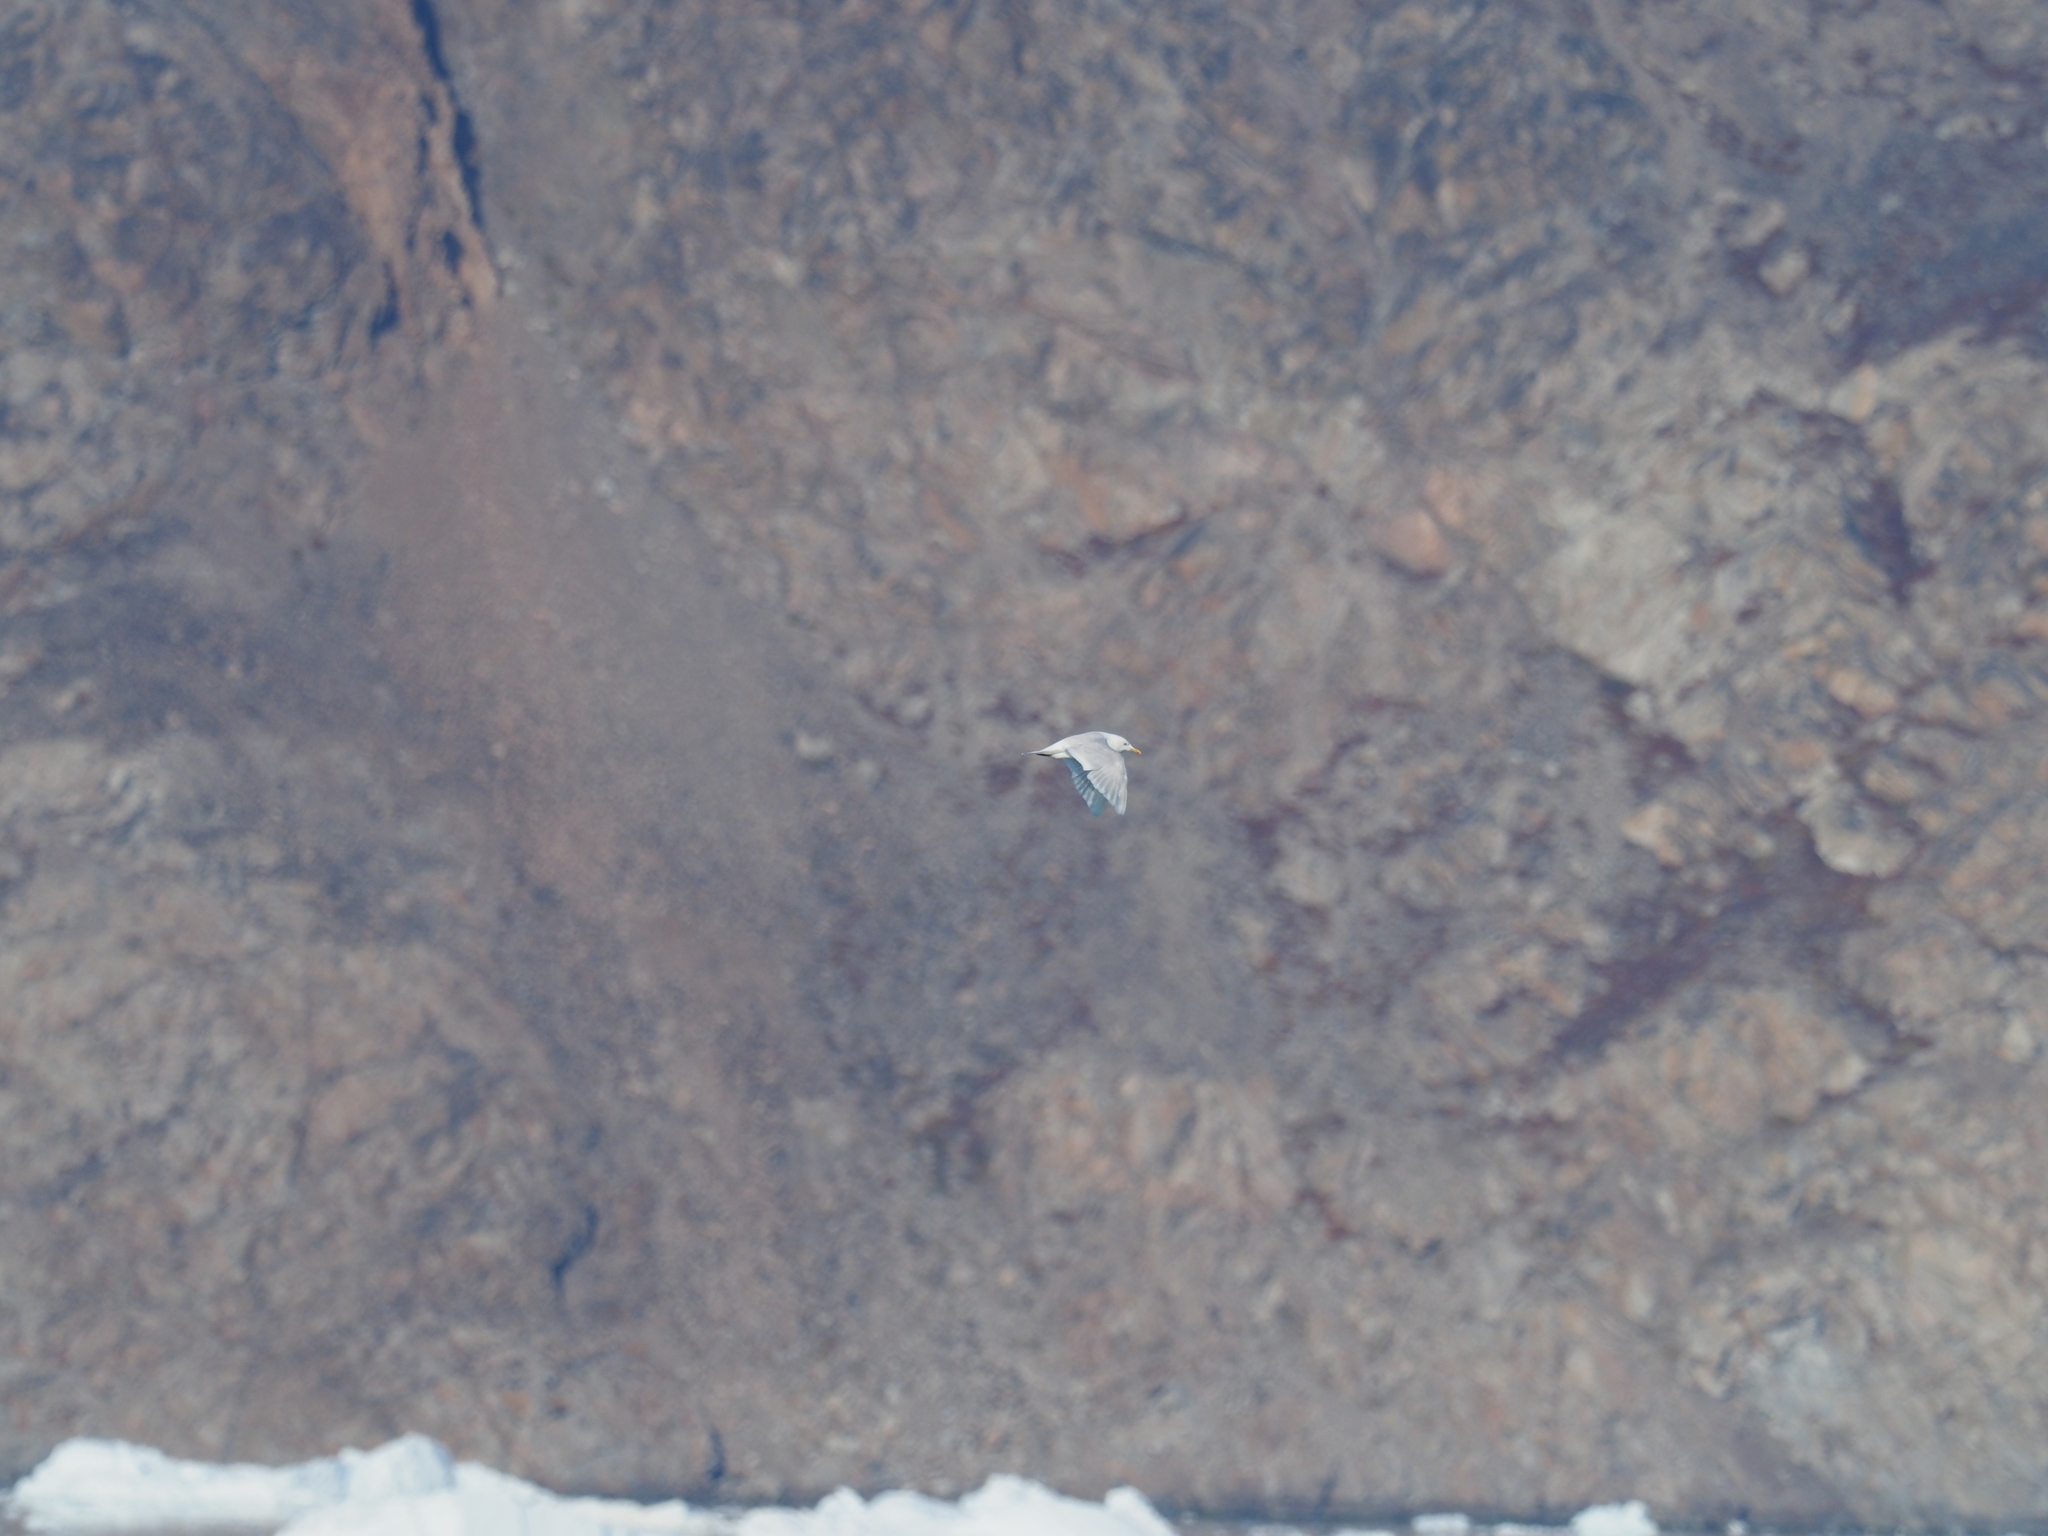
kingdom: Animalia
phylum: Chordata
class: Aves
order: Charadriiformes
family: Laridae
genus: Larus
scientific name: Larus glaucoides
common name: Iceland gull
